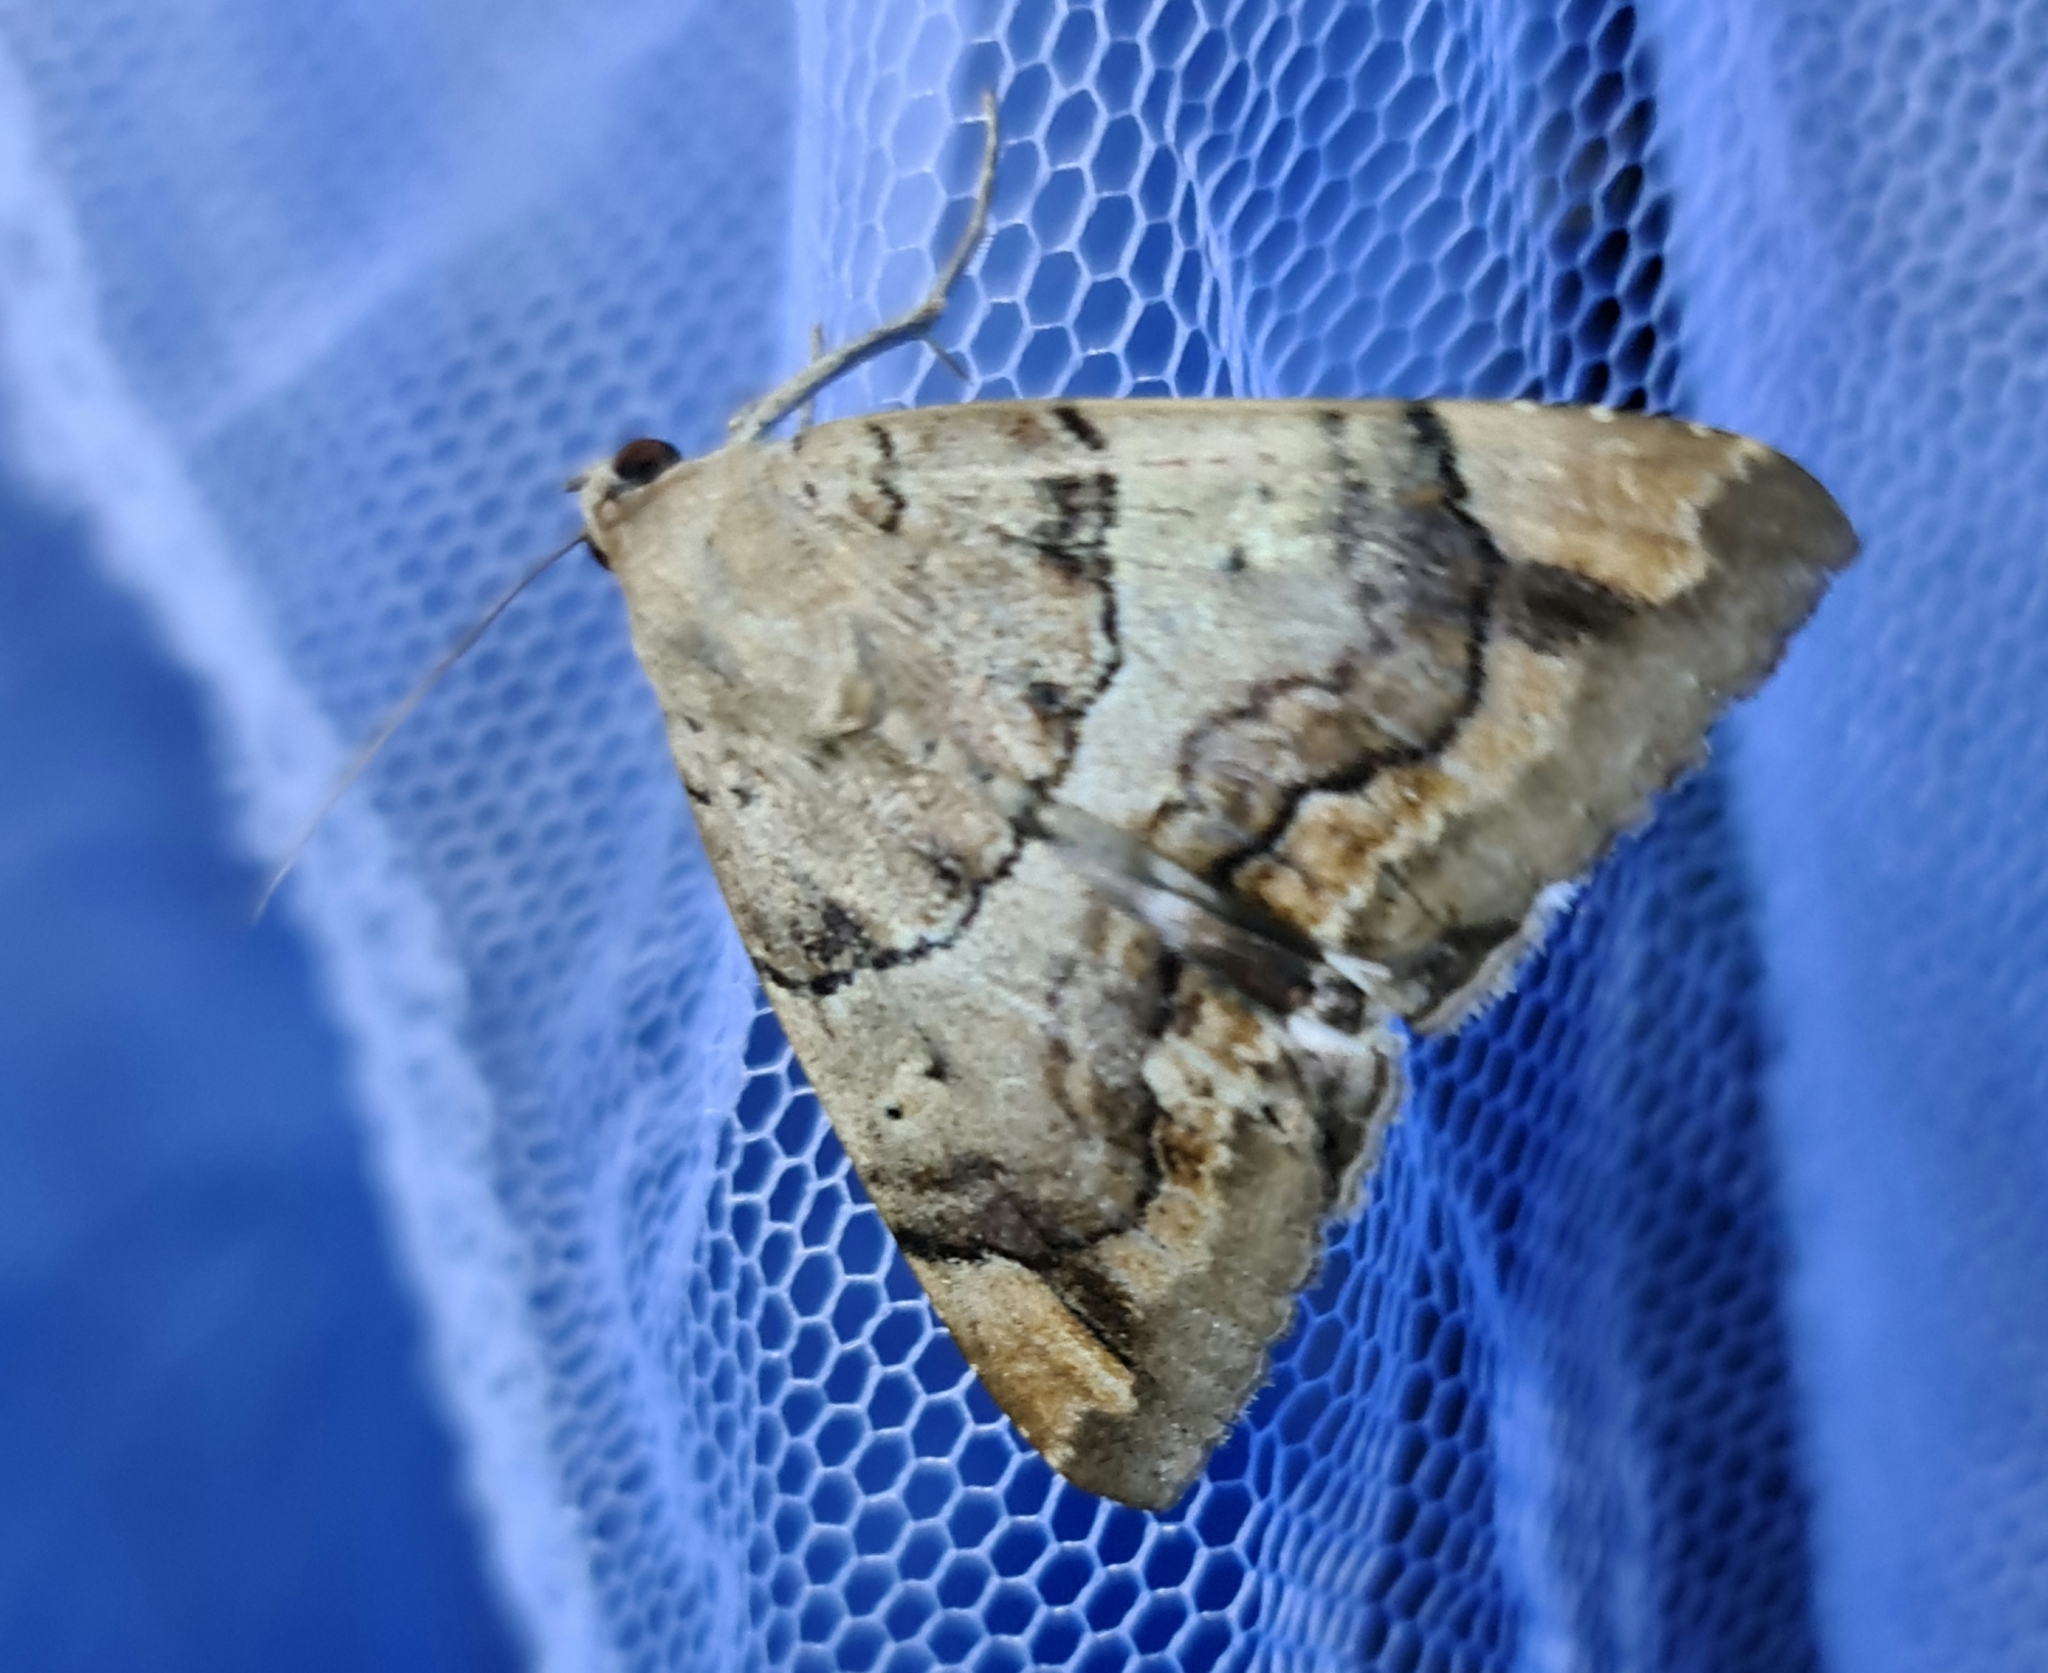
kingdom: Animalia
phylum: Arthropoda
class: Insecta
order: Lepidoptera
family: Erebidae
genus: Achaea
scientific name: Achaea janata
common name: Croton caterpillar
